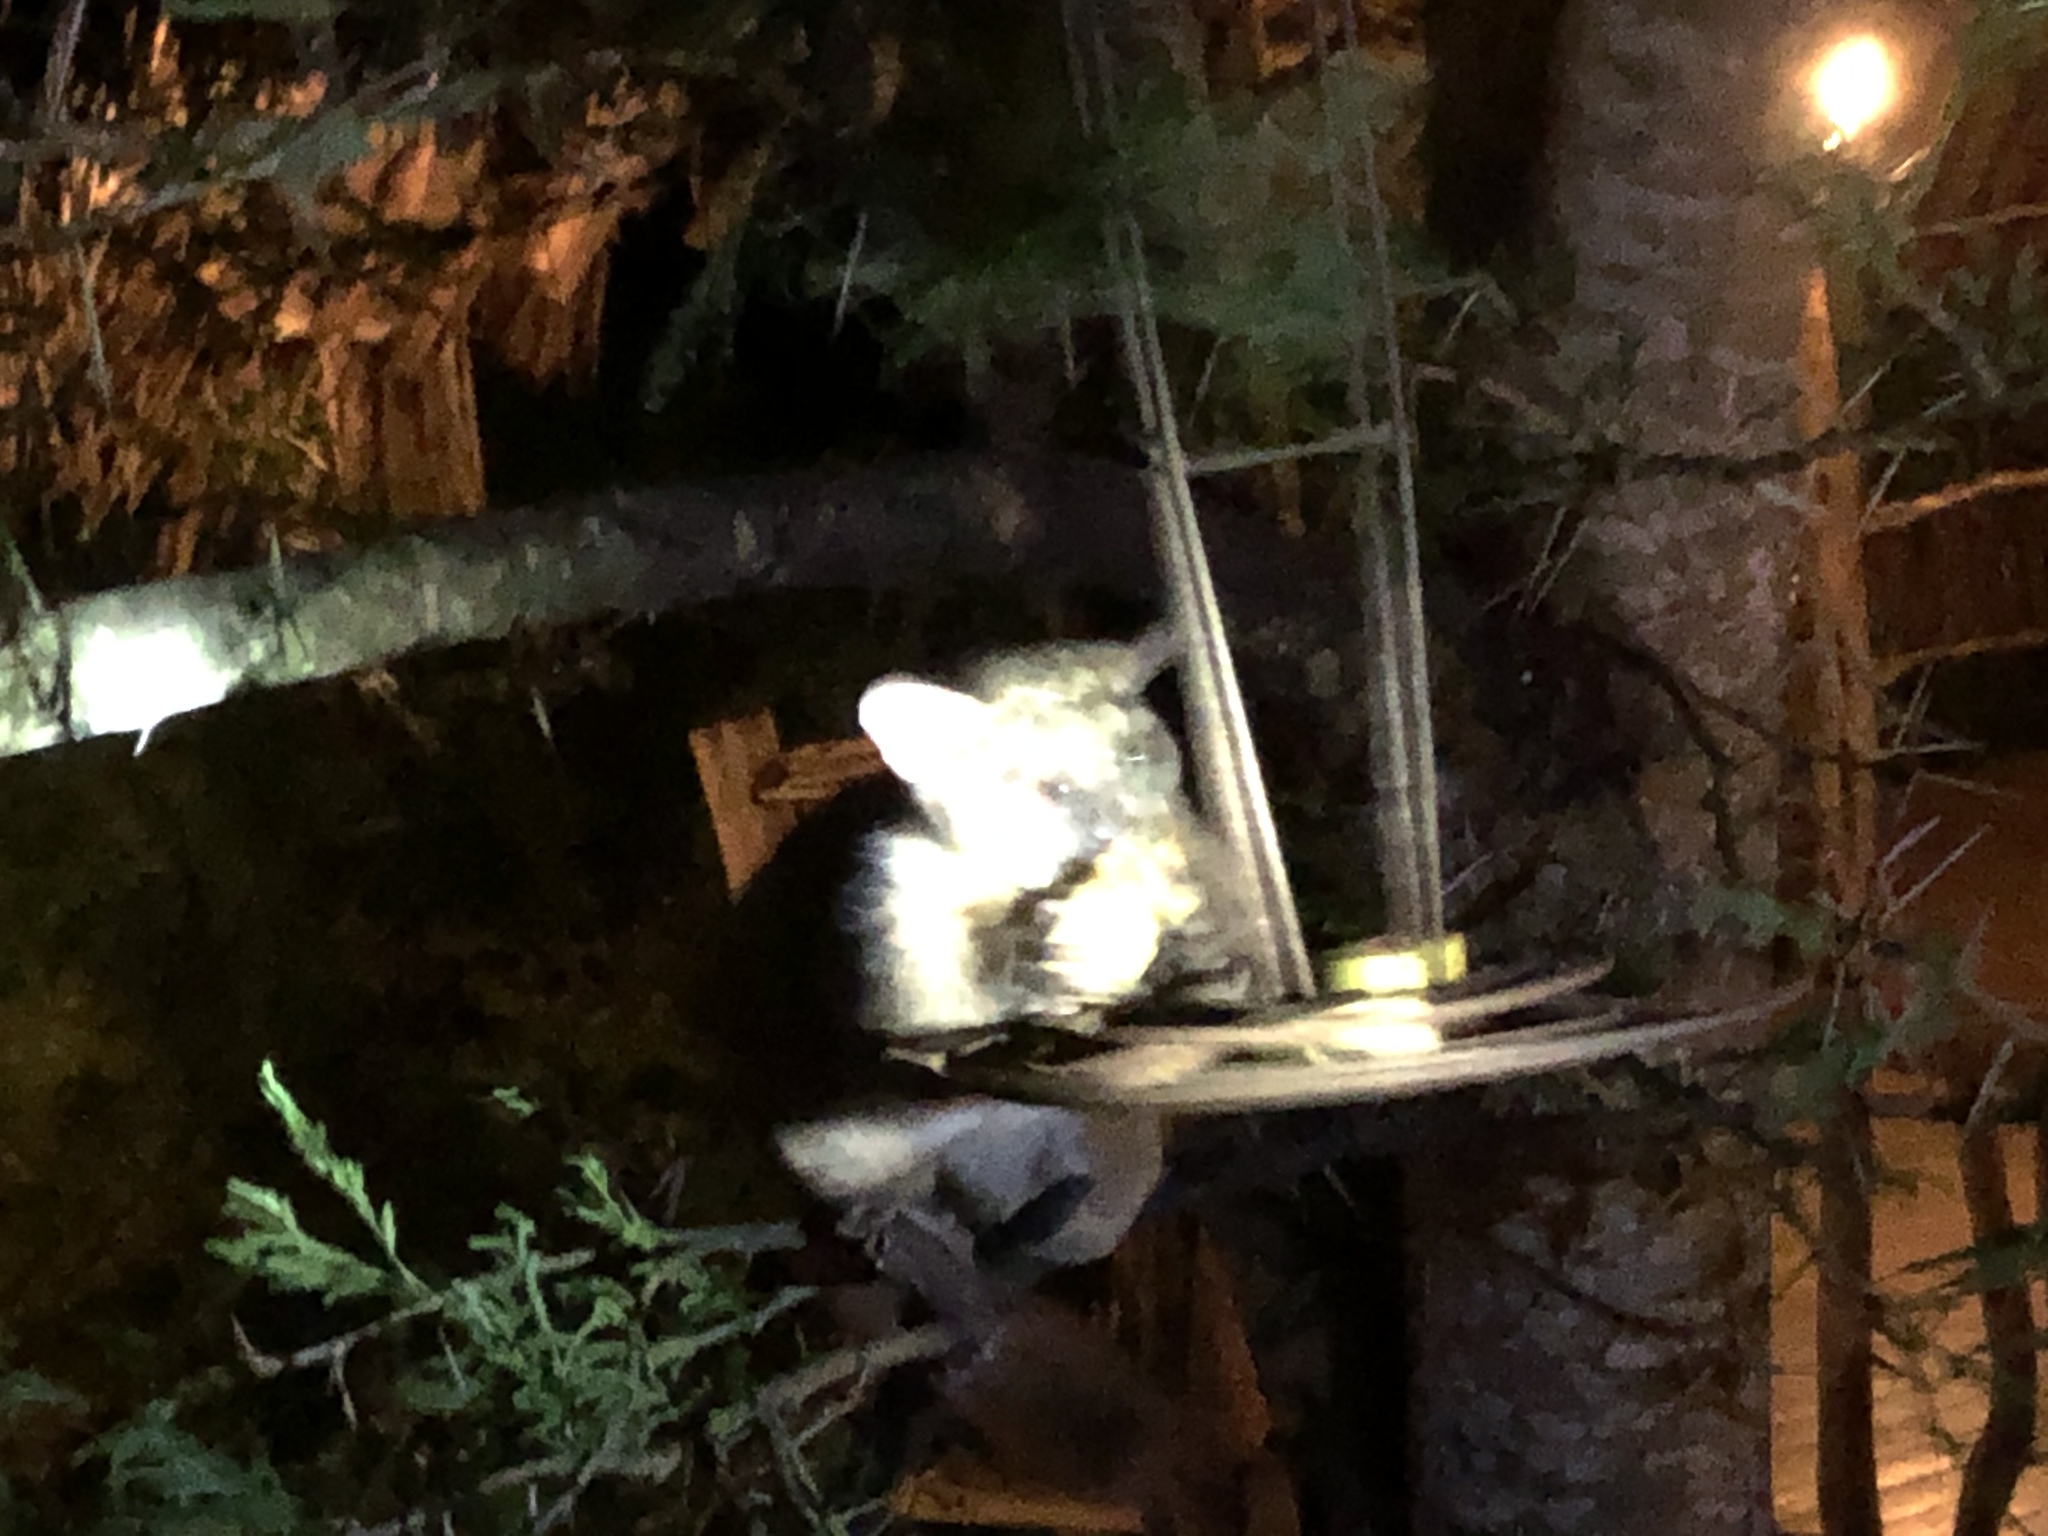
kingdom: Animalia
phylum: Chordata
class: Mammalia
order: Primates
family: Galagidae
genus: Otolemur
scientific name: Otolemur garnettii
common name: Northern greater galago
